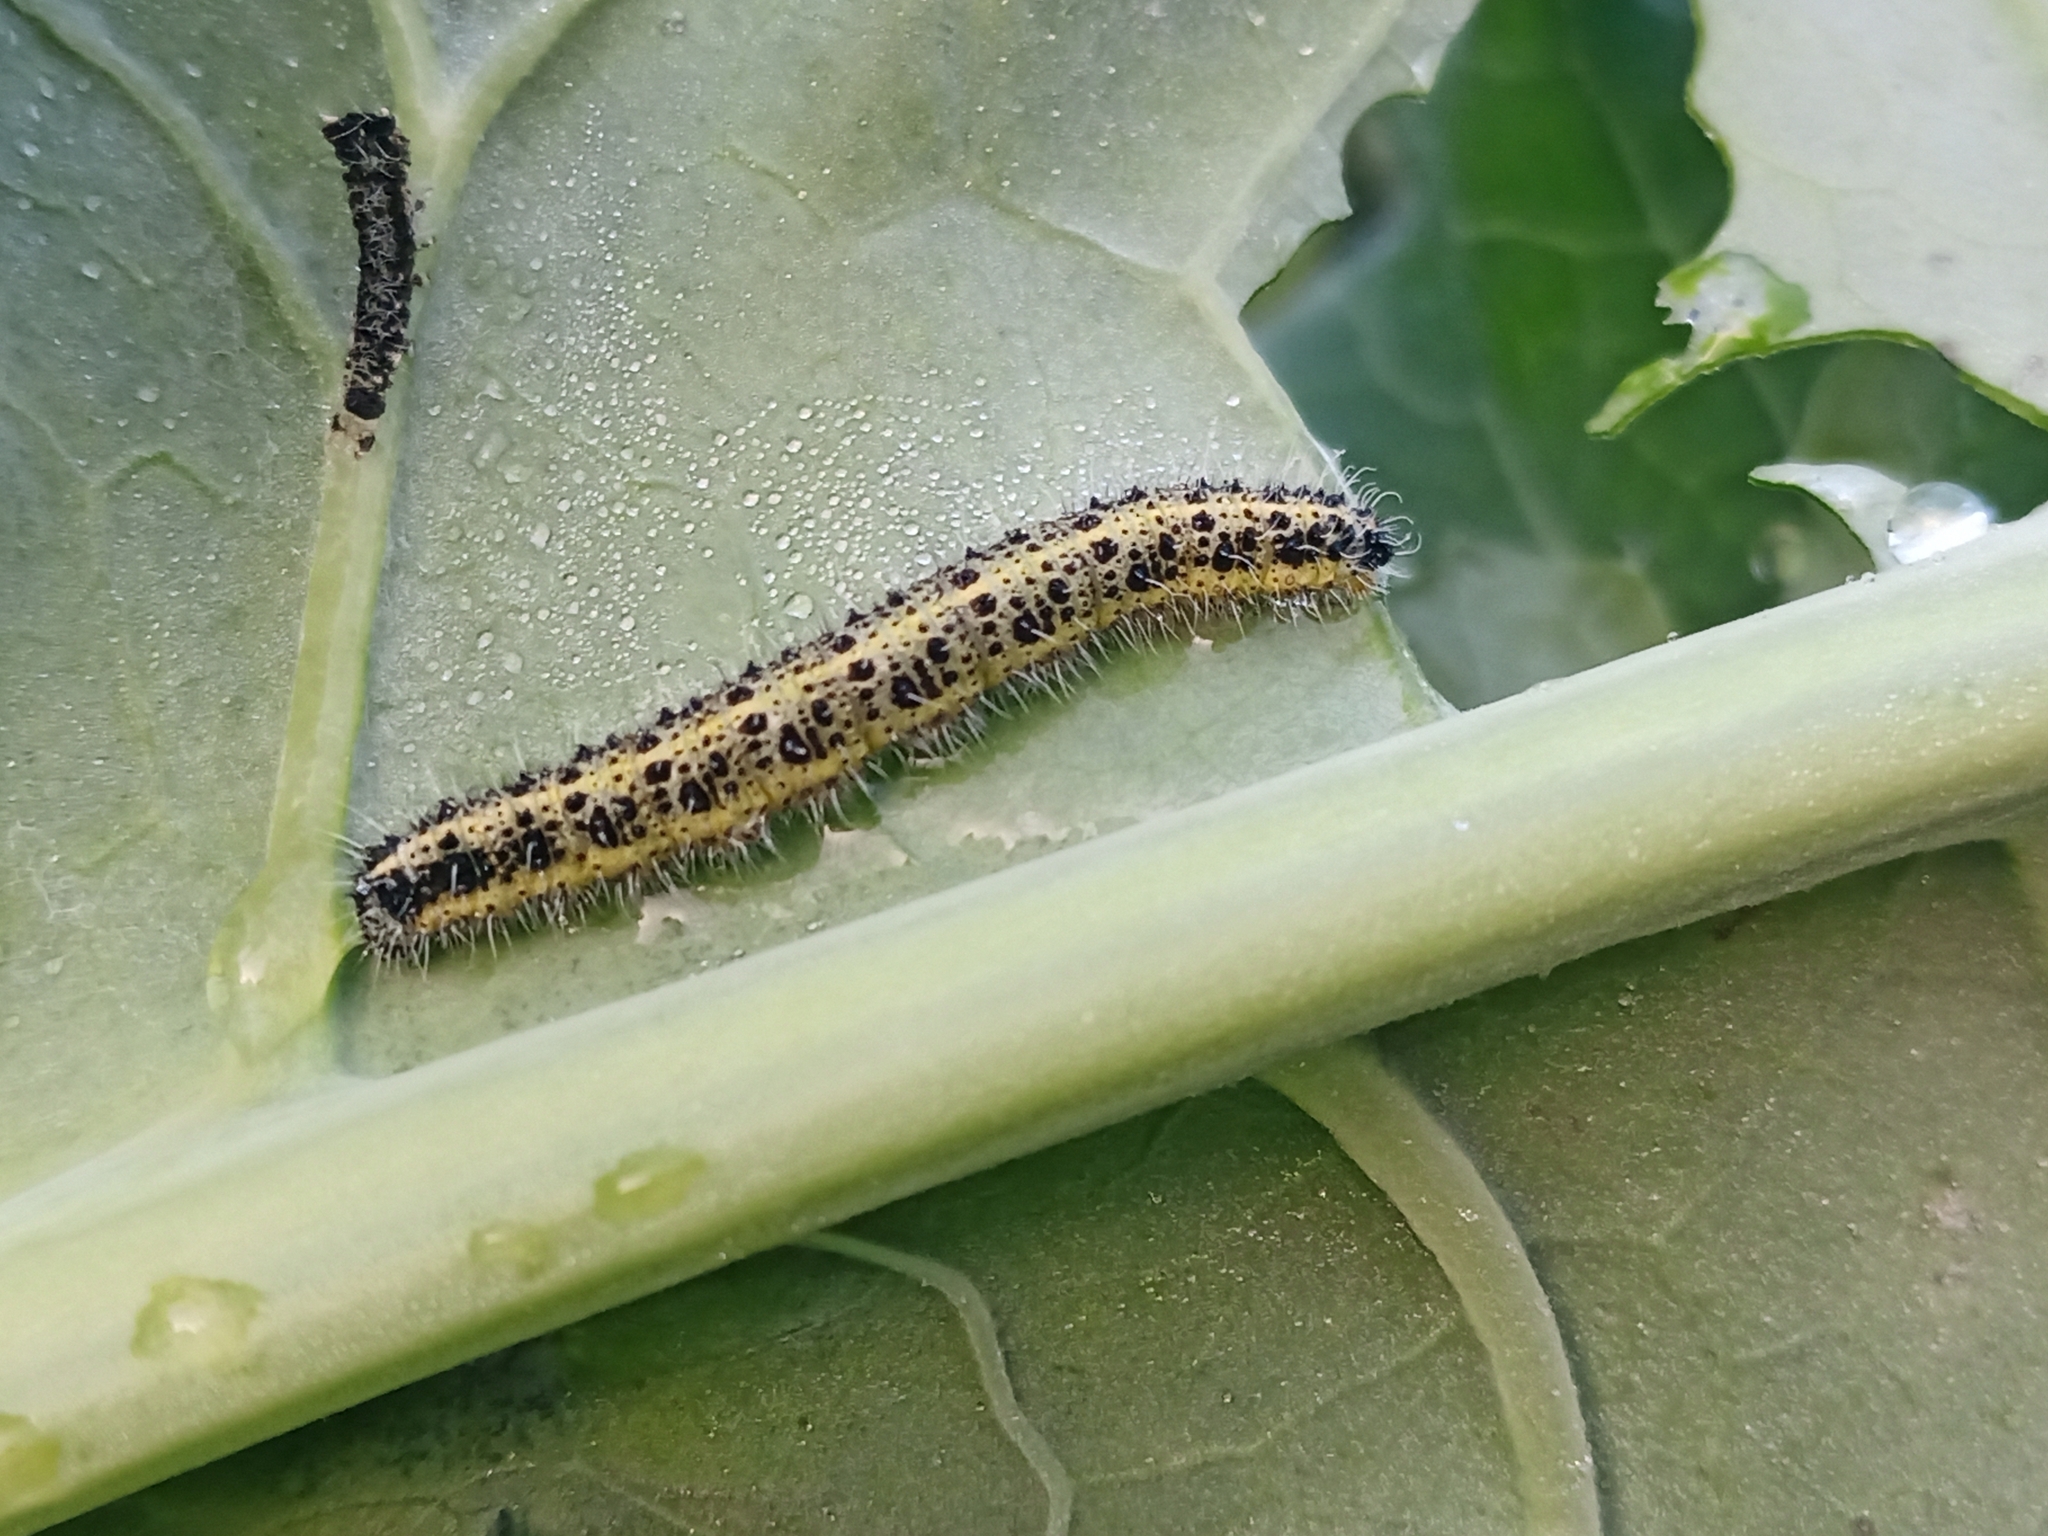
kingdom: Animalia
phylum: Arthropoda
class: Insecta
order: Lepidoptera
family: Pieridae
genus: Pieris
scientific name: Pieris brassicae
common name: Large white
